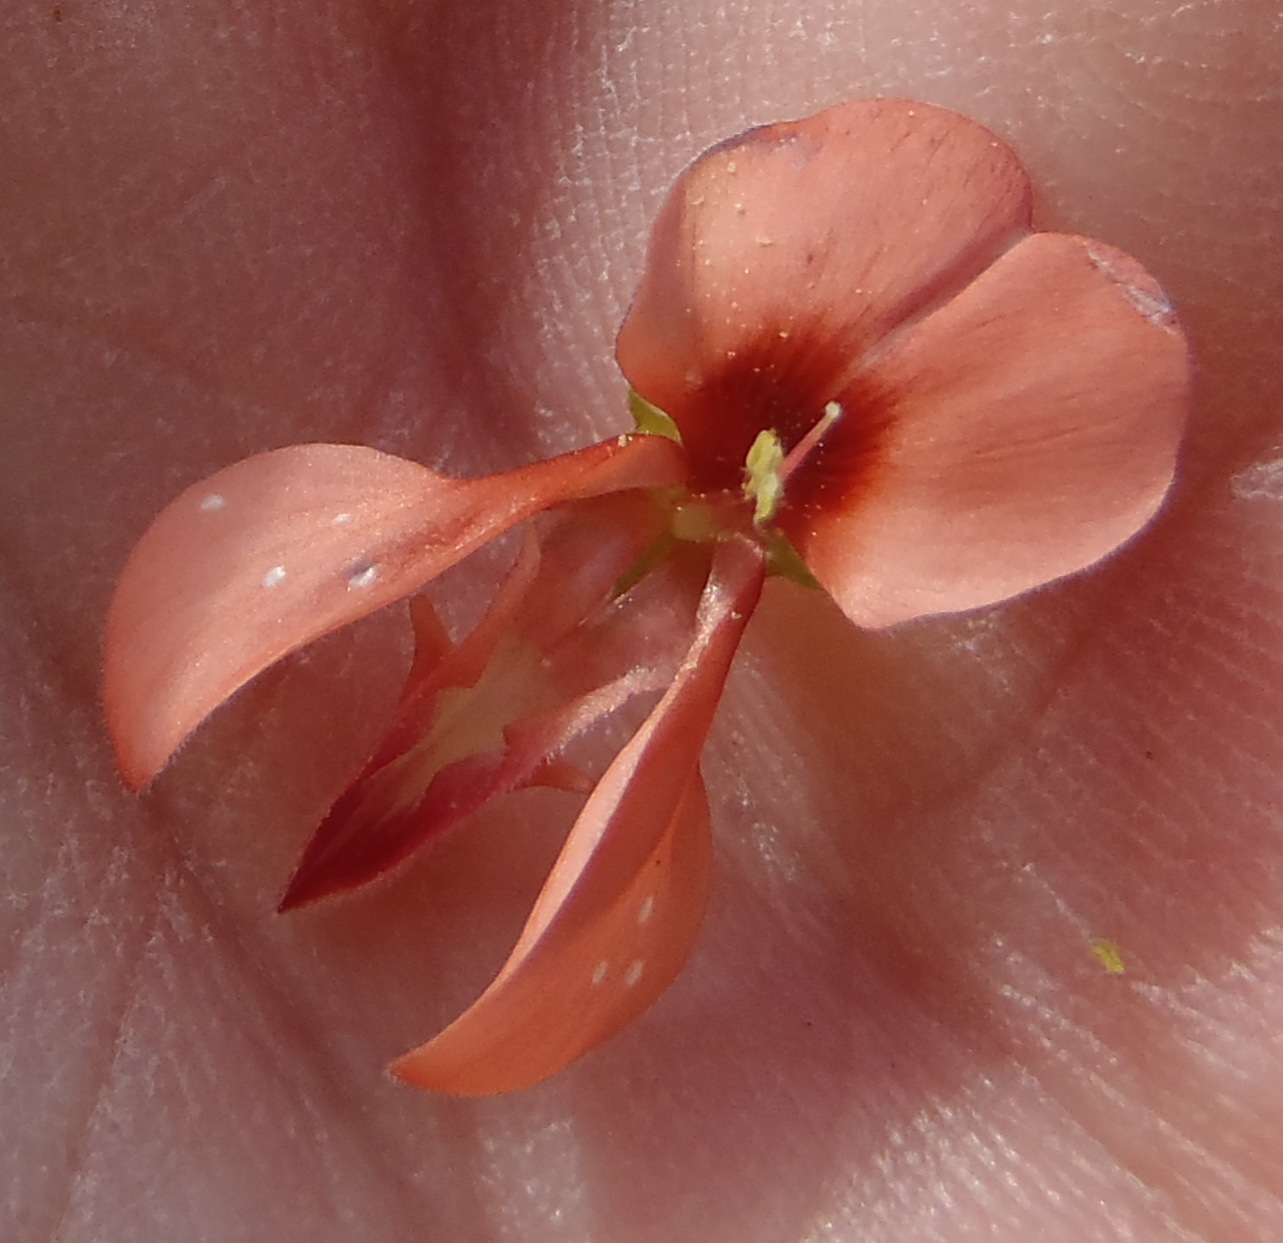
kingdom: Plantae
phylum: Tracheophyta
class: Magnoliopsida
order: Fabales
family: Fabaceae
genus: Indigofera
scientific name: Indigofera candicans
